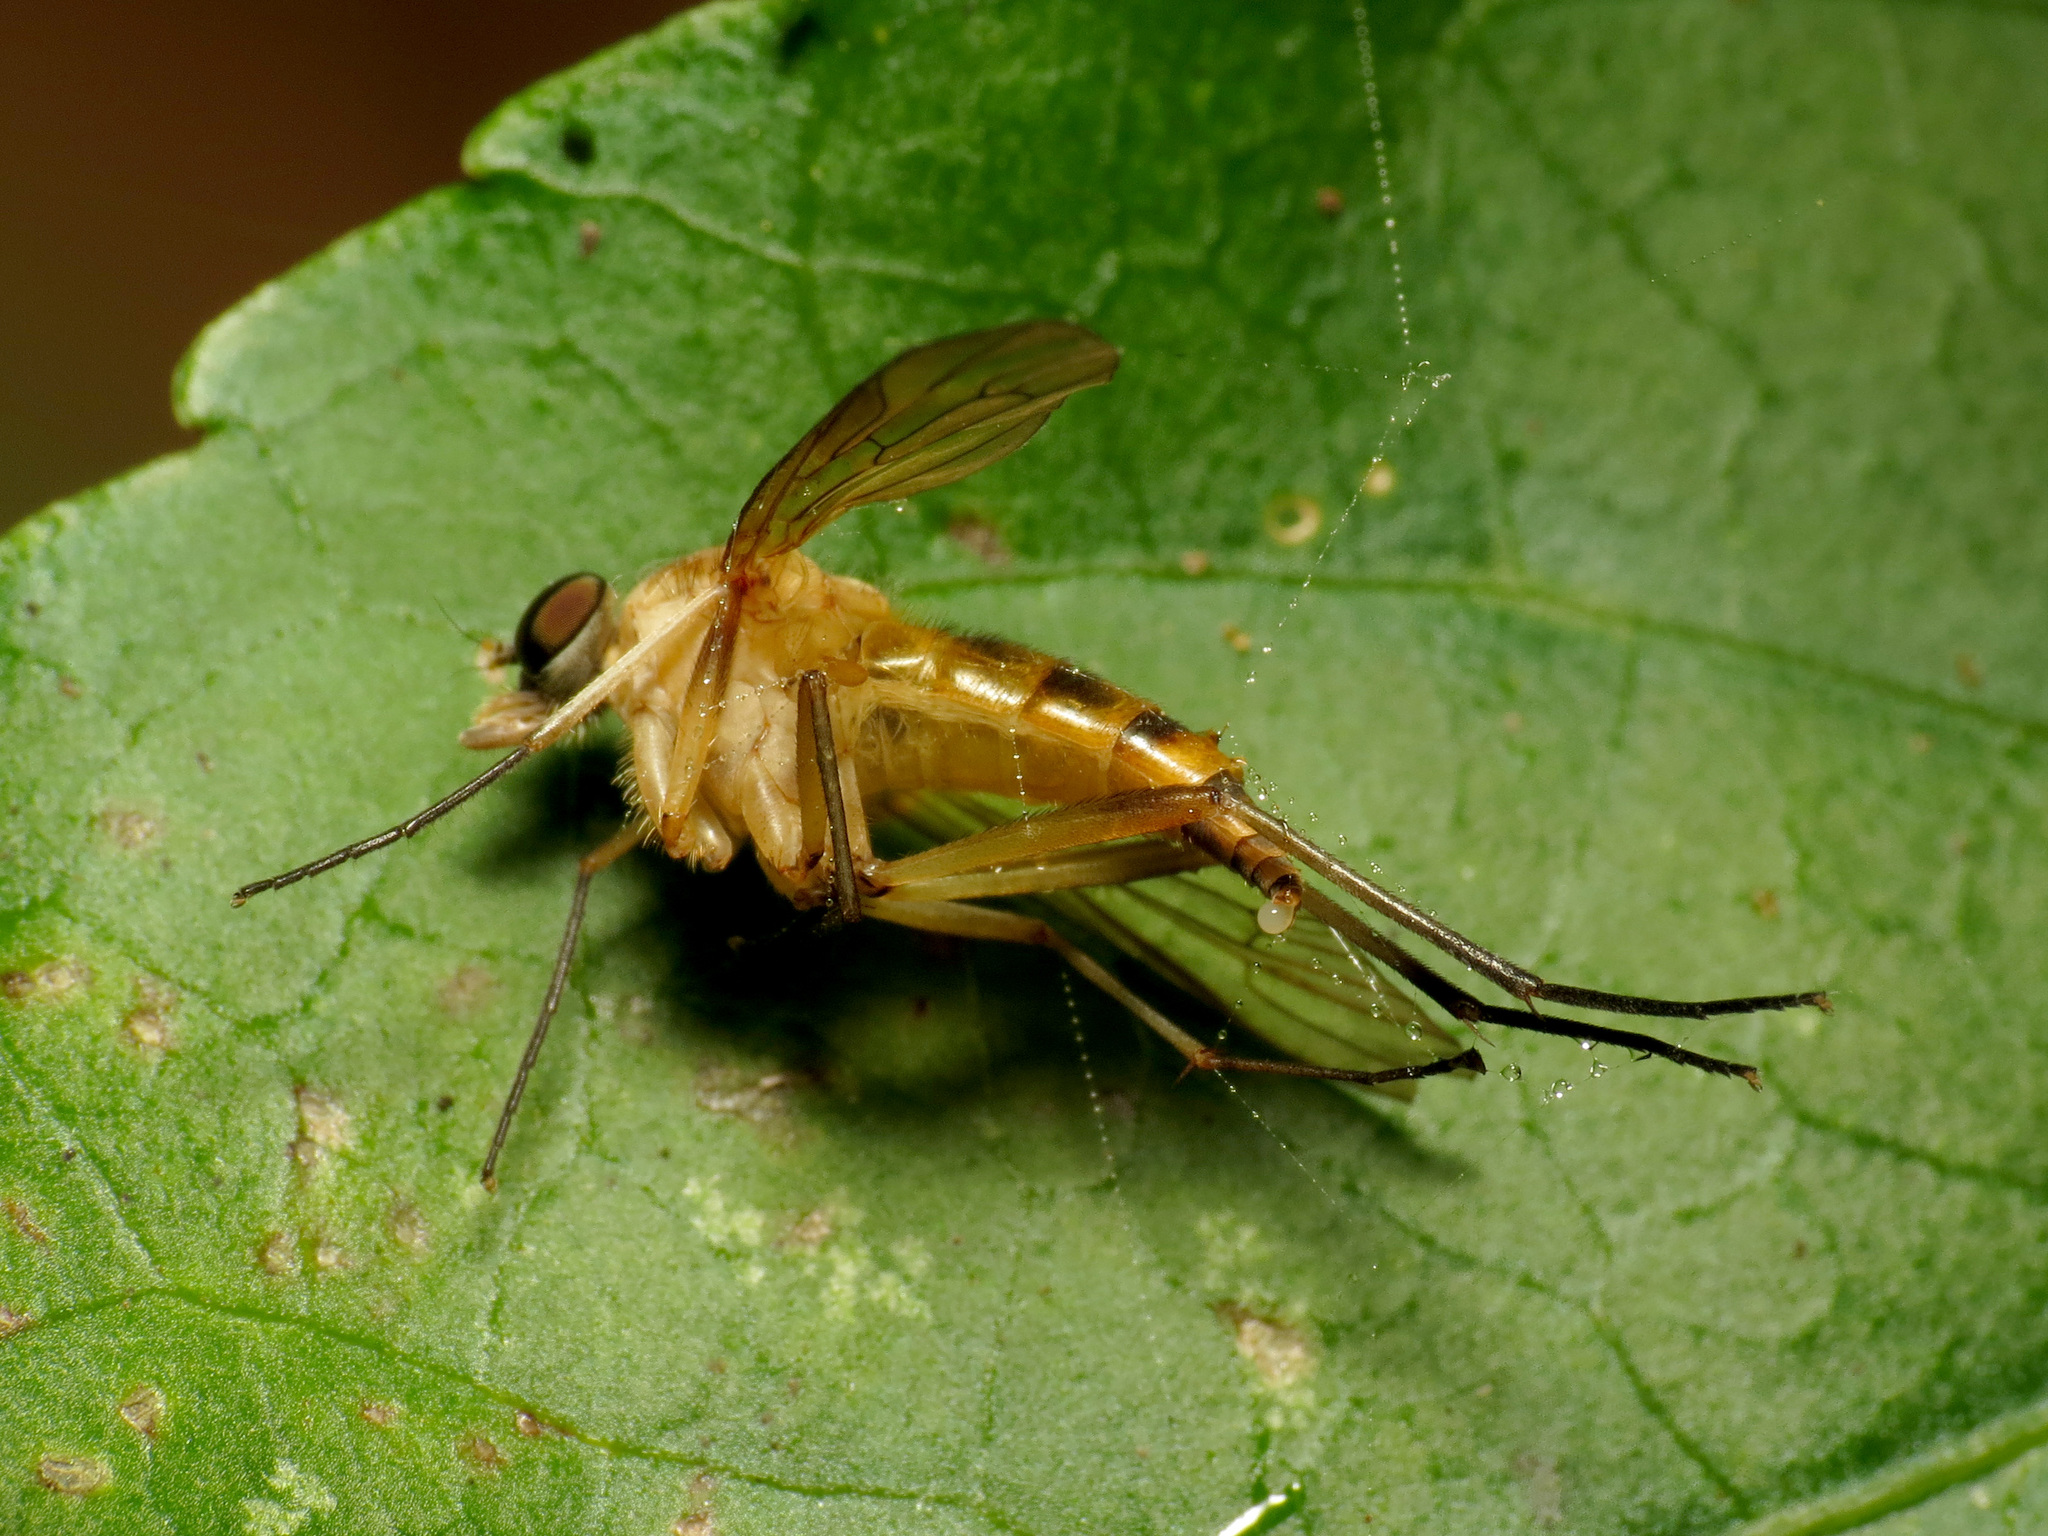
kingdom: Animalia
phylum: Arthropoda
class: Insecta
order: Diptera
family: Rhagionidae
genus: Rhagio
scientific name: Rhagio hirta
